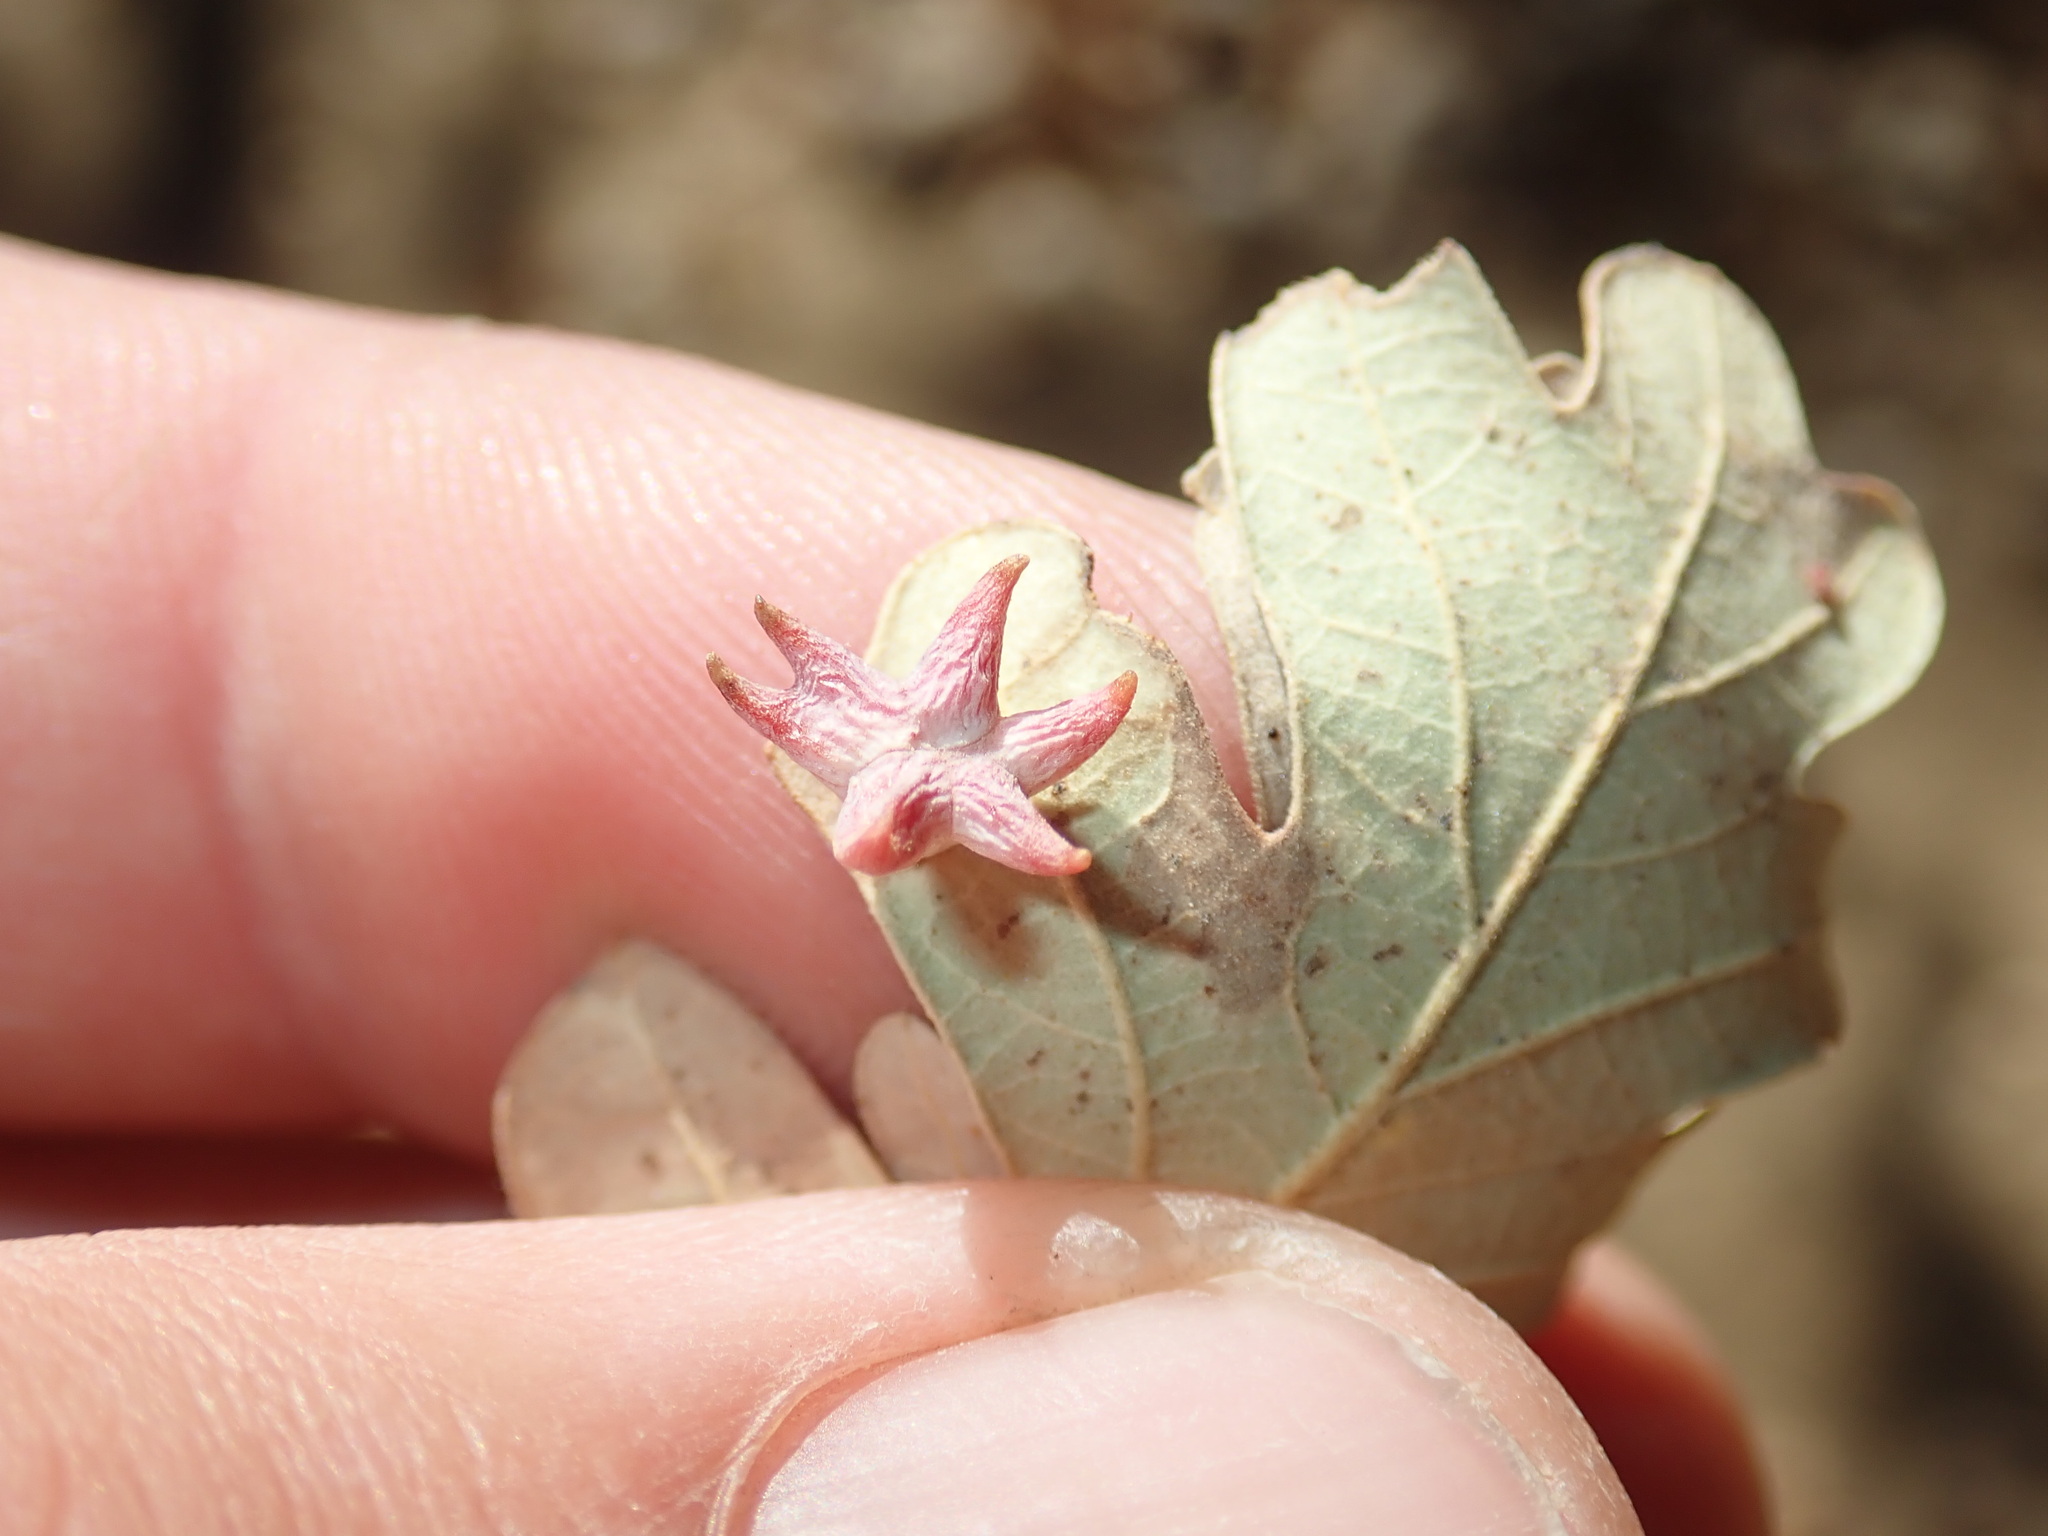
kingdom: Animalia
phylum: Arthropoda
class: Insecta
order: Hymenoptera
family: Cynipidae
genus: Cynips
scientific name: Cynips douglasi
